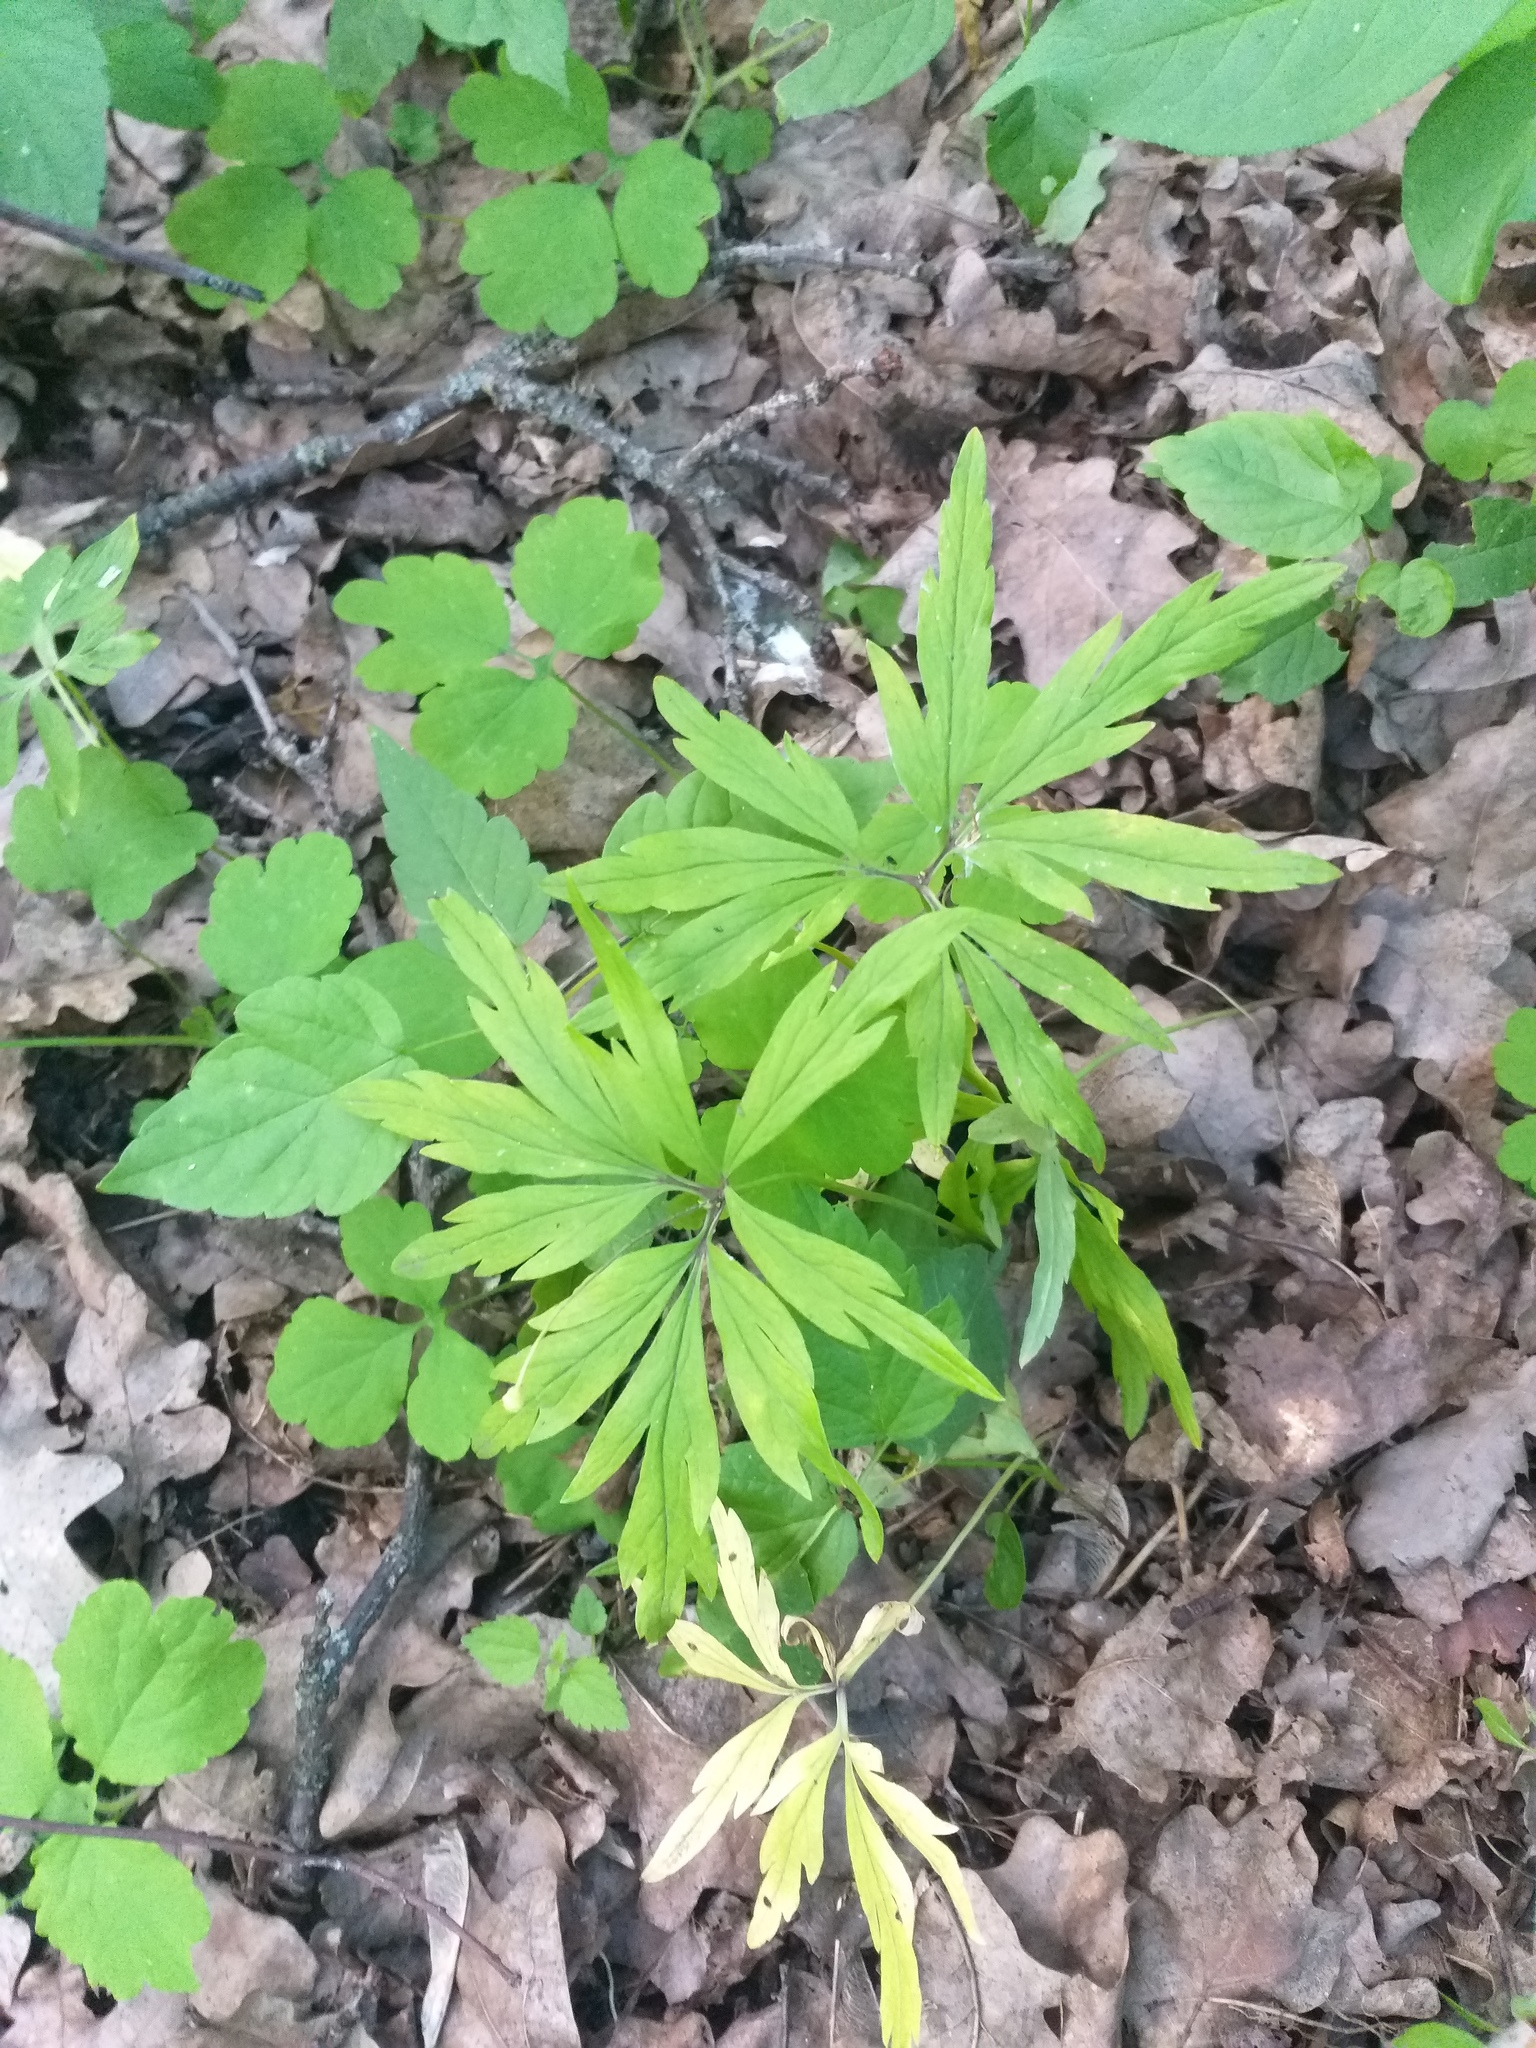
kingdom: Plantae
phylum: Tracheophyta
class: Magnoliopsida
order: Ranunculales
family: Ranunculaceae
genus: Anemone
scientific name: Anemone ranunculoides
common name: Yellow anemone
